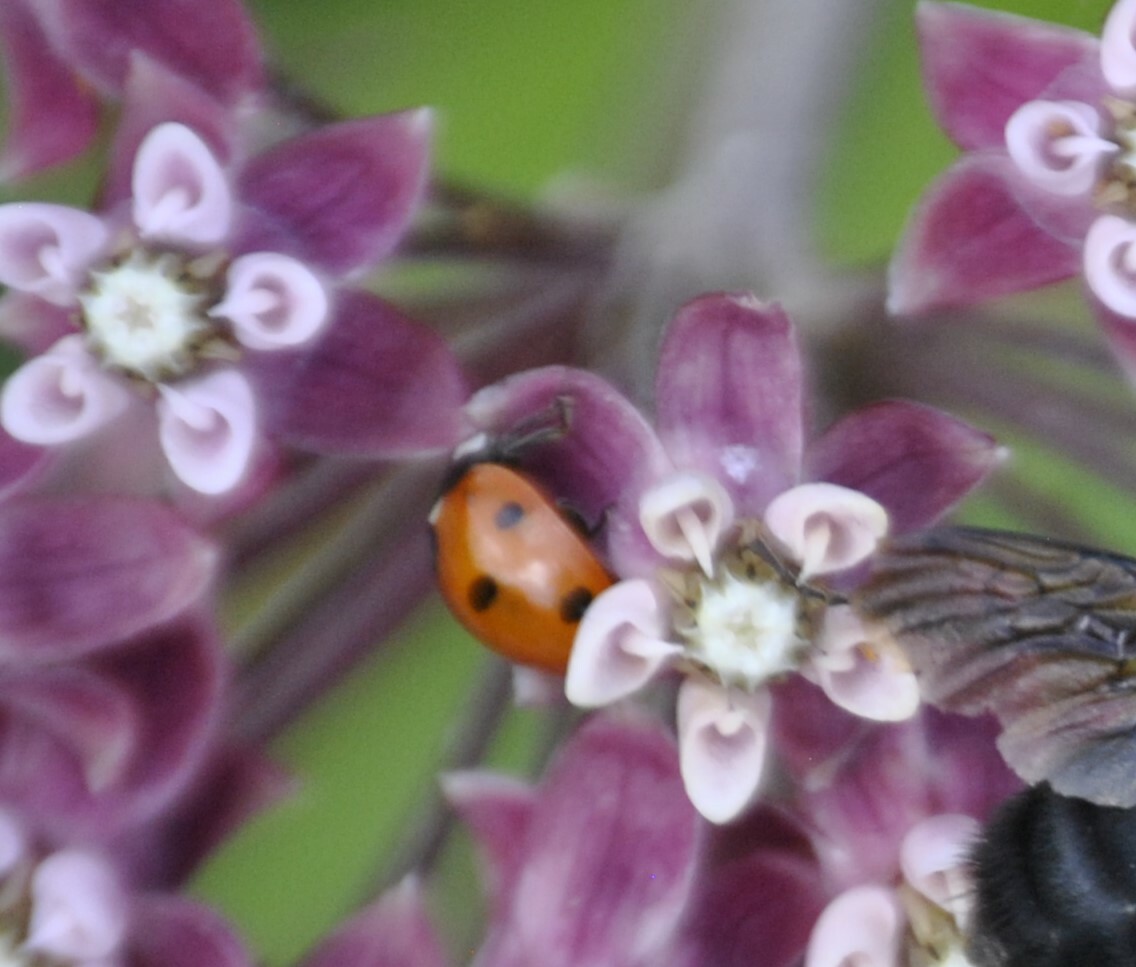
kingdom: Animalia
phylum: Arthropoda
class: Insecta
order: Coleoptera
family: Coccinellidae
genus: Coccinella
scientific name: Coccinella septempunctata
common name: Sevenspotted lady beetle
